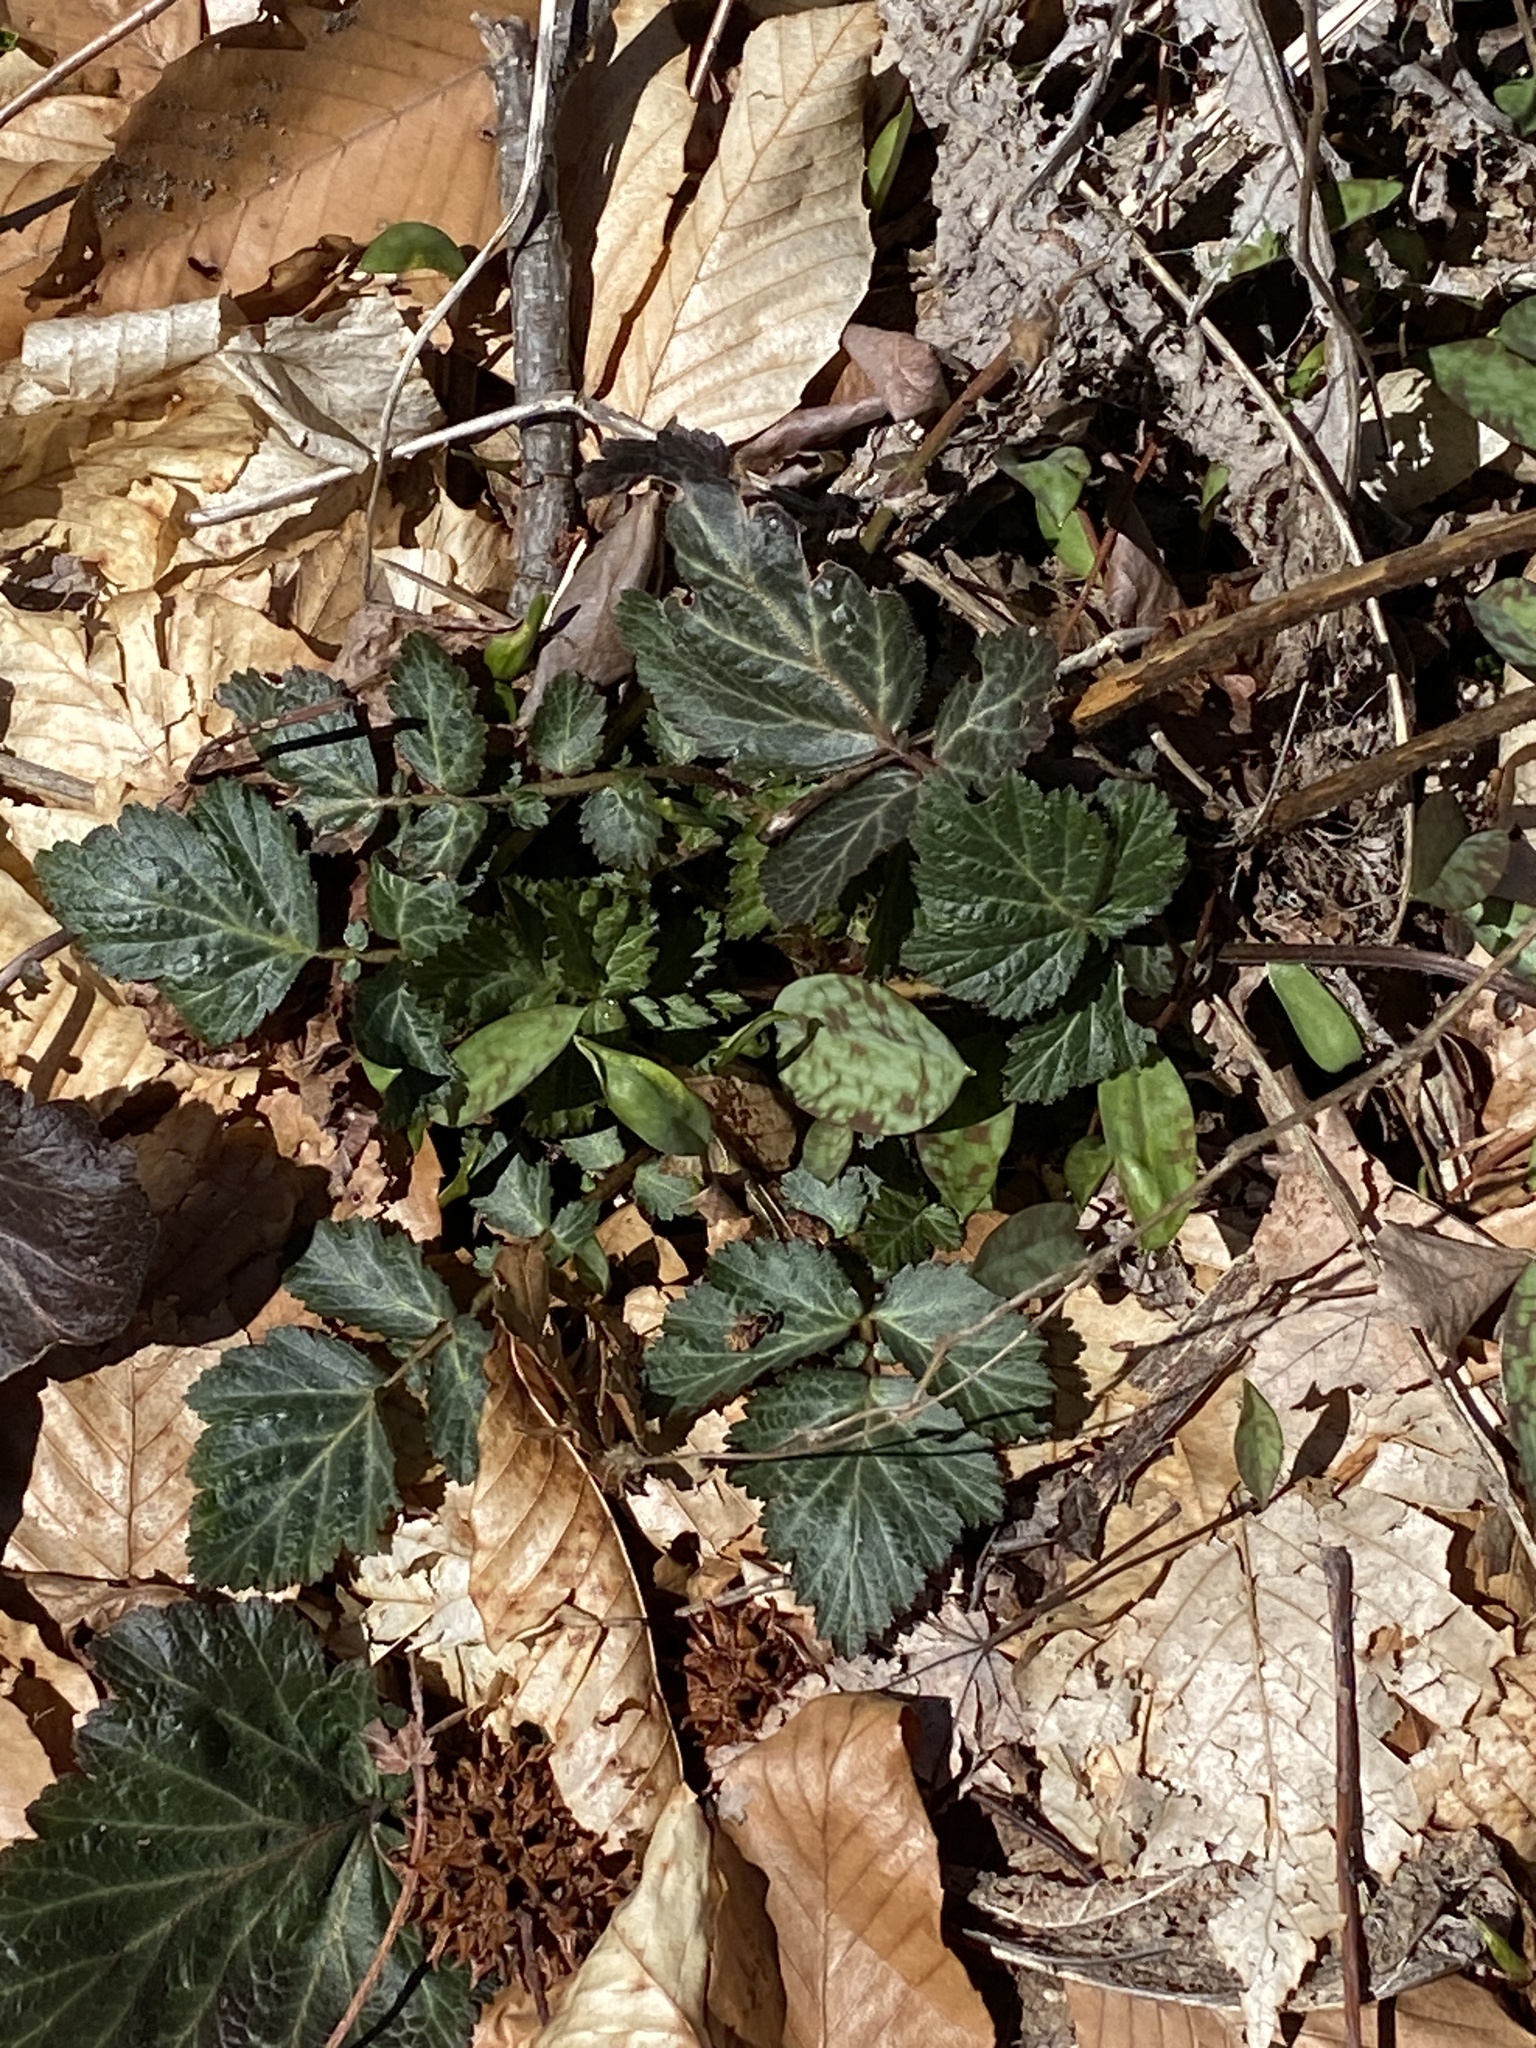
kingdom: Plantae
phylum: Tracheophyta
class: Magnoliopsida
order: Rosales
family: Rosaceae
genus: Geum
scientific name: Geum canadense
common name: White avens
